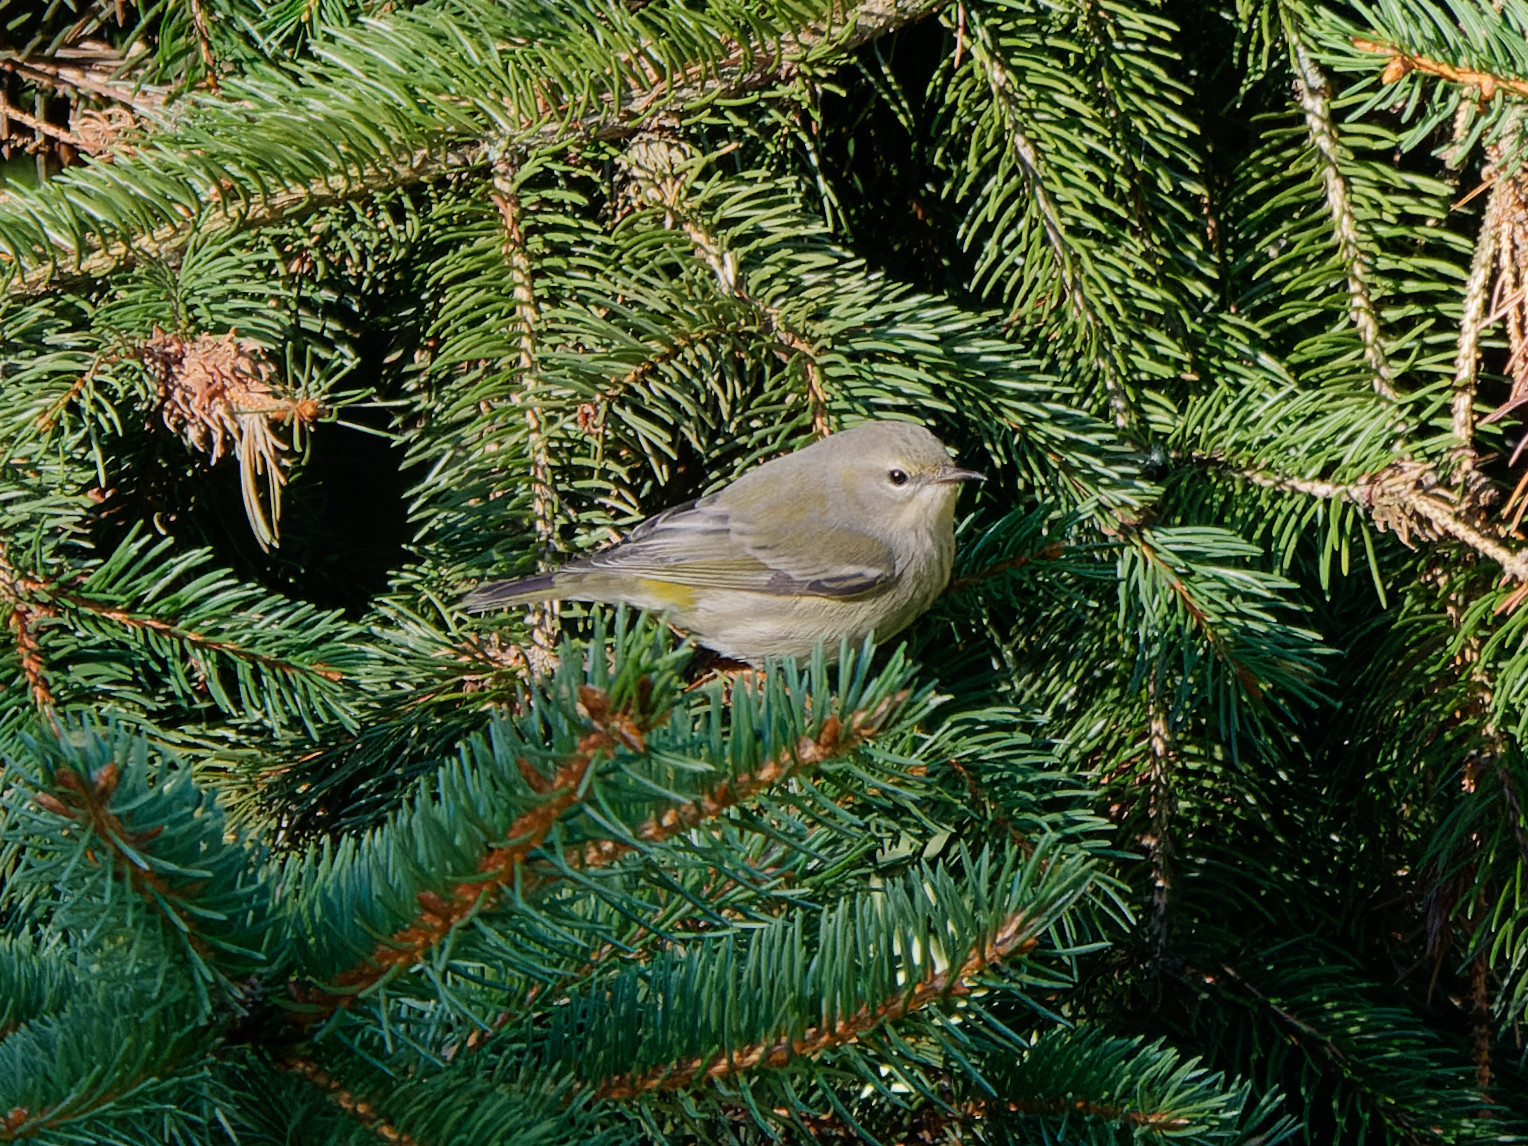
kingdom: Animalia
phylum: Chordata
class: Aves
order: Passeriformes
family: Parulidae
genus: Setophaga
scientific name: Setophaga tigrina
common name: Cape may warbler
